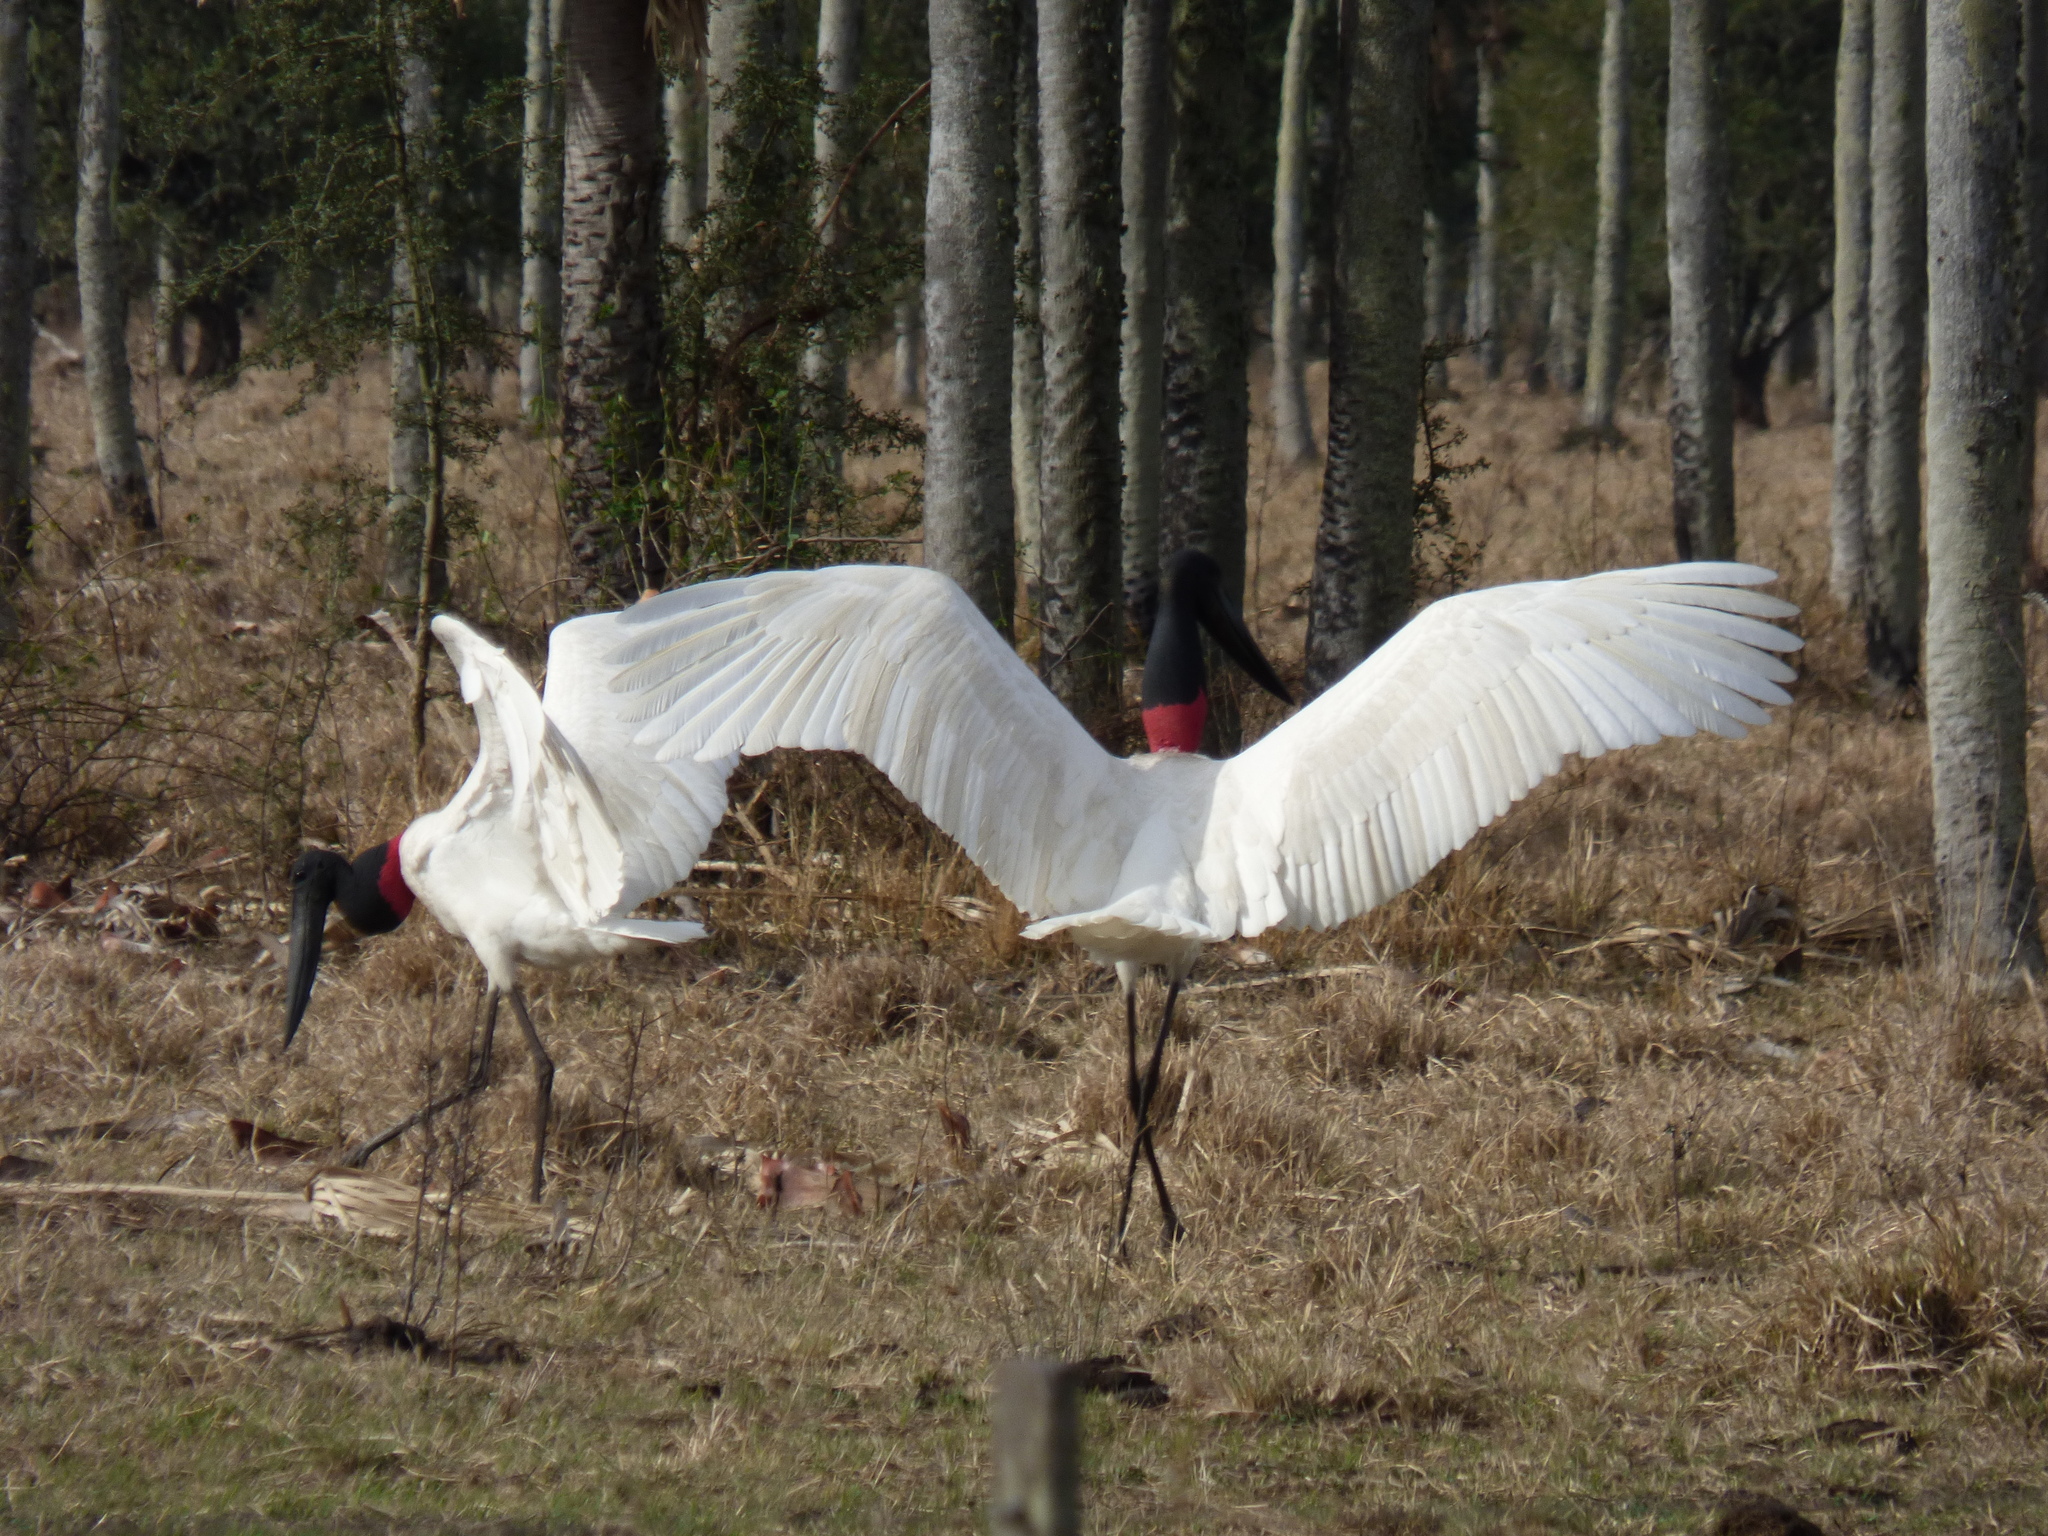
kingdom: Animalia
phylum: Chordata
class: Aves
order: Ciconiiformes
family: Ciconiidae
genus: Jabiru
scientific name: Jabiru mycteria
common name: Jabiru
